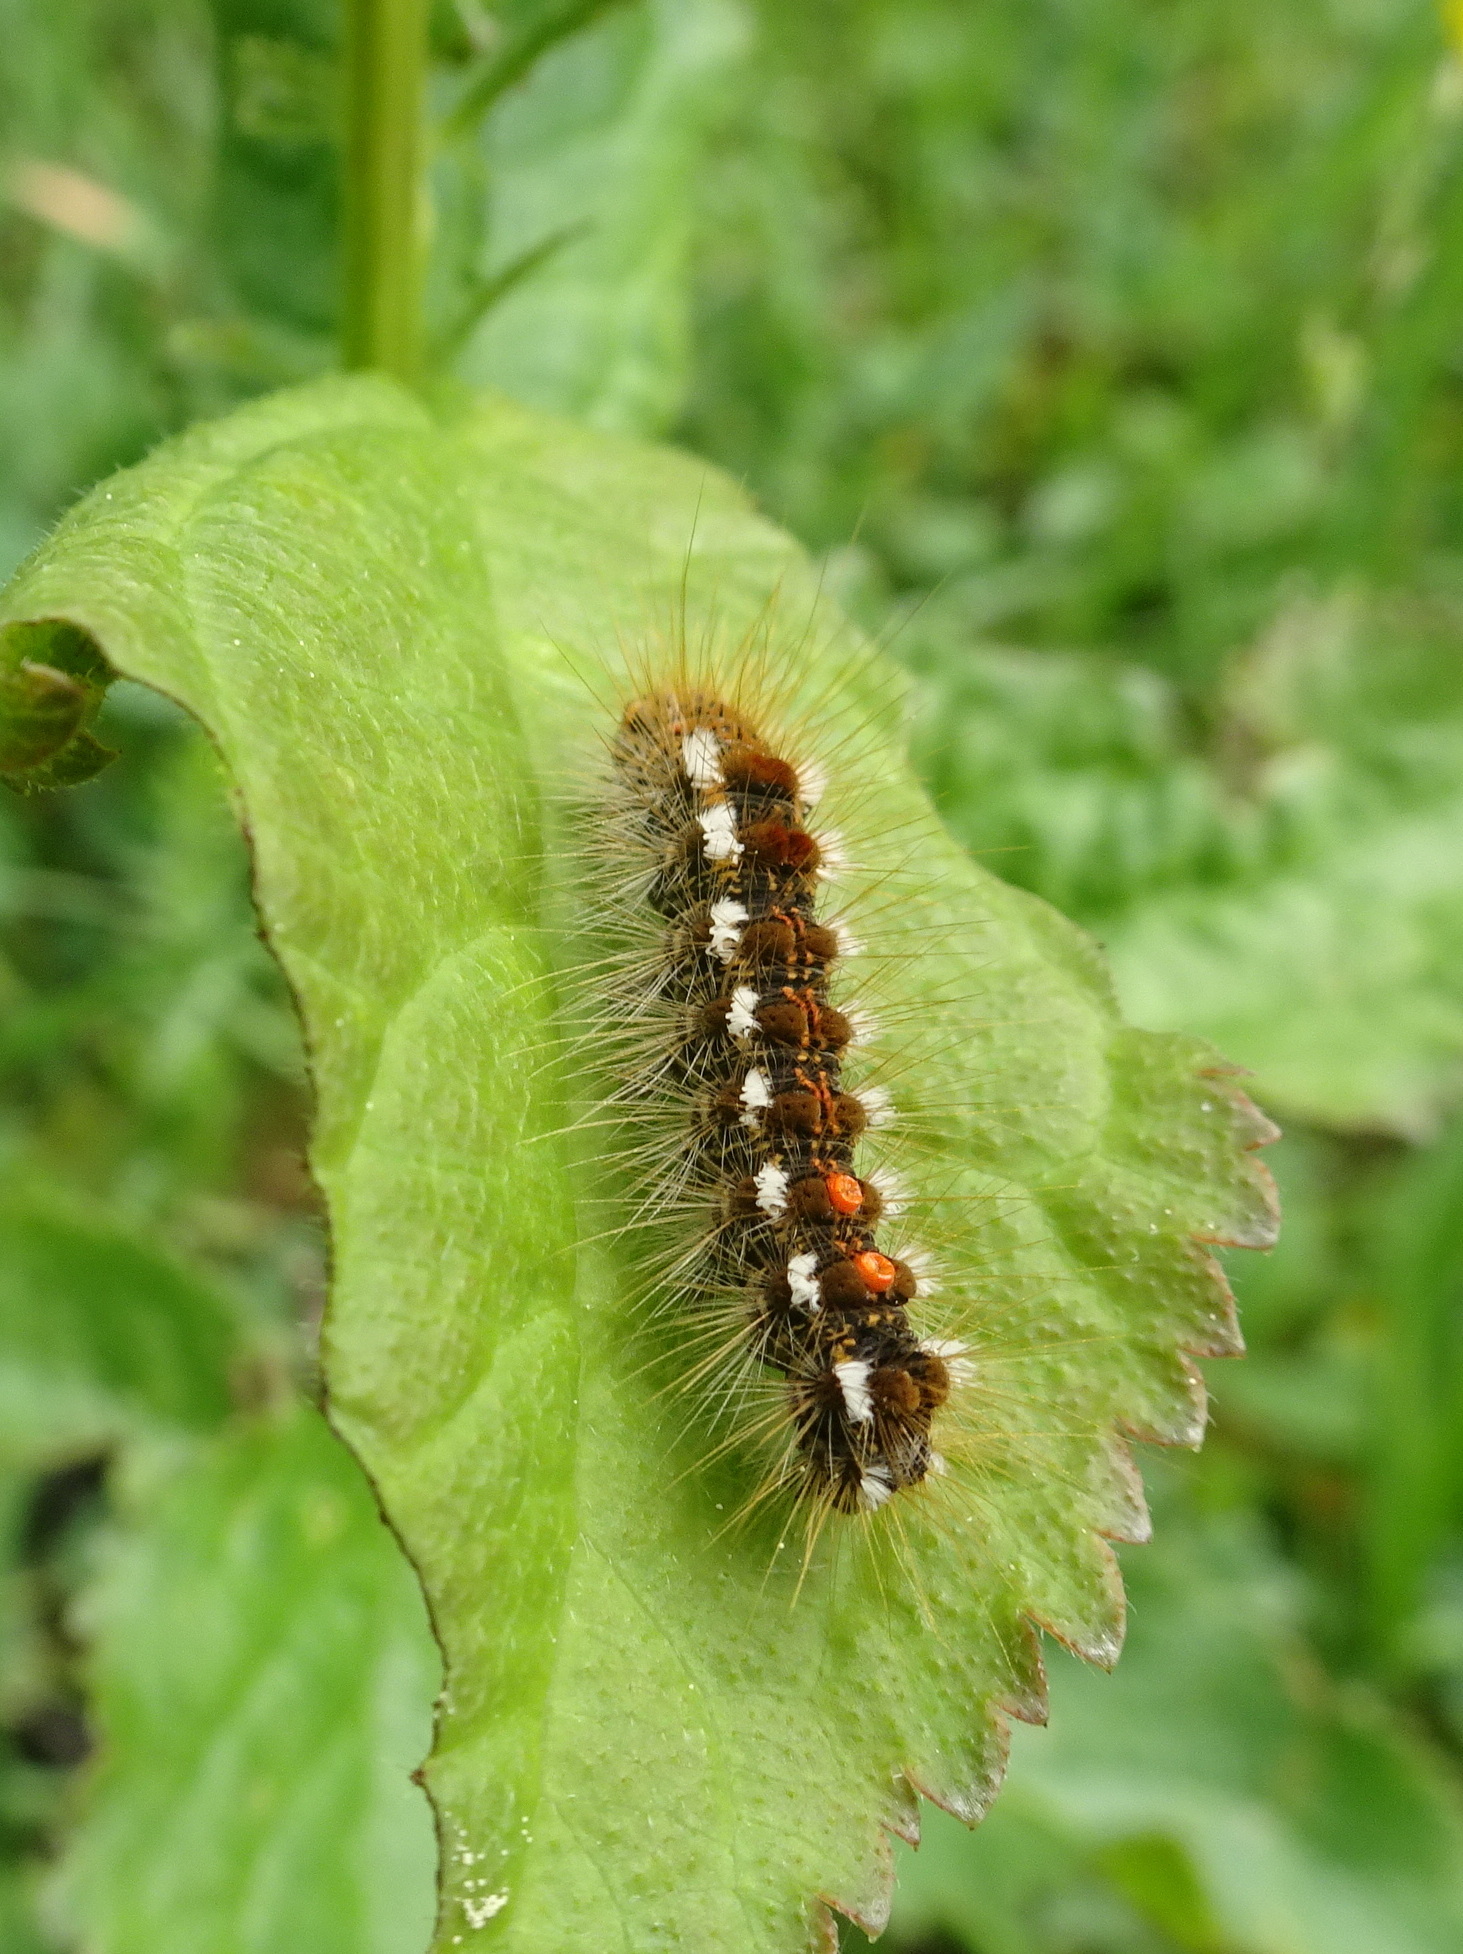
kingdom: Animalia
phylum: Arthropoda
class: Insecta
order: Lepidoptera
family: Erebidae
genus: Euproctis
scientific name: Euproctis chrysorrhoea
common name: Brown-tail
